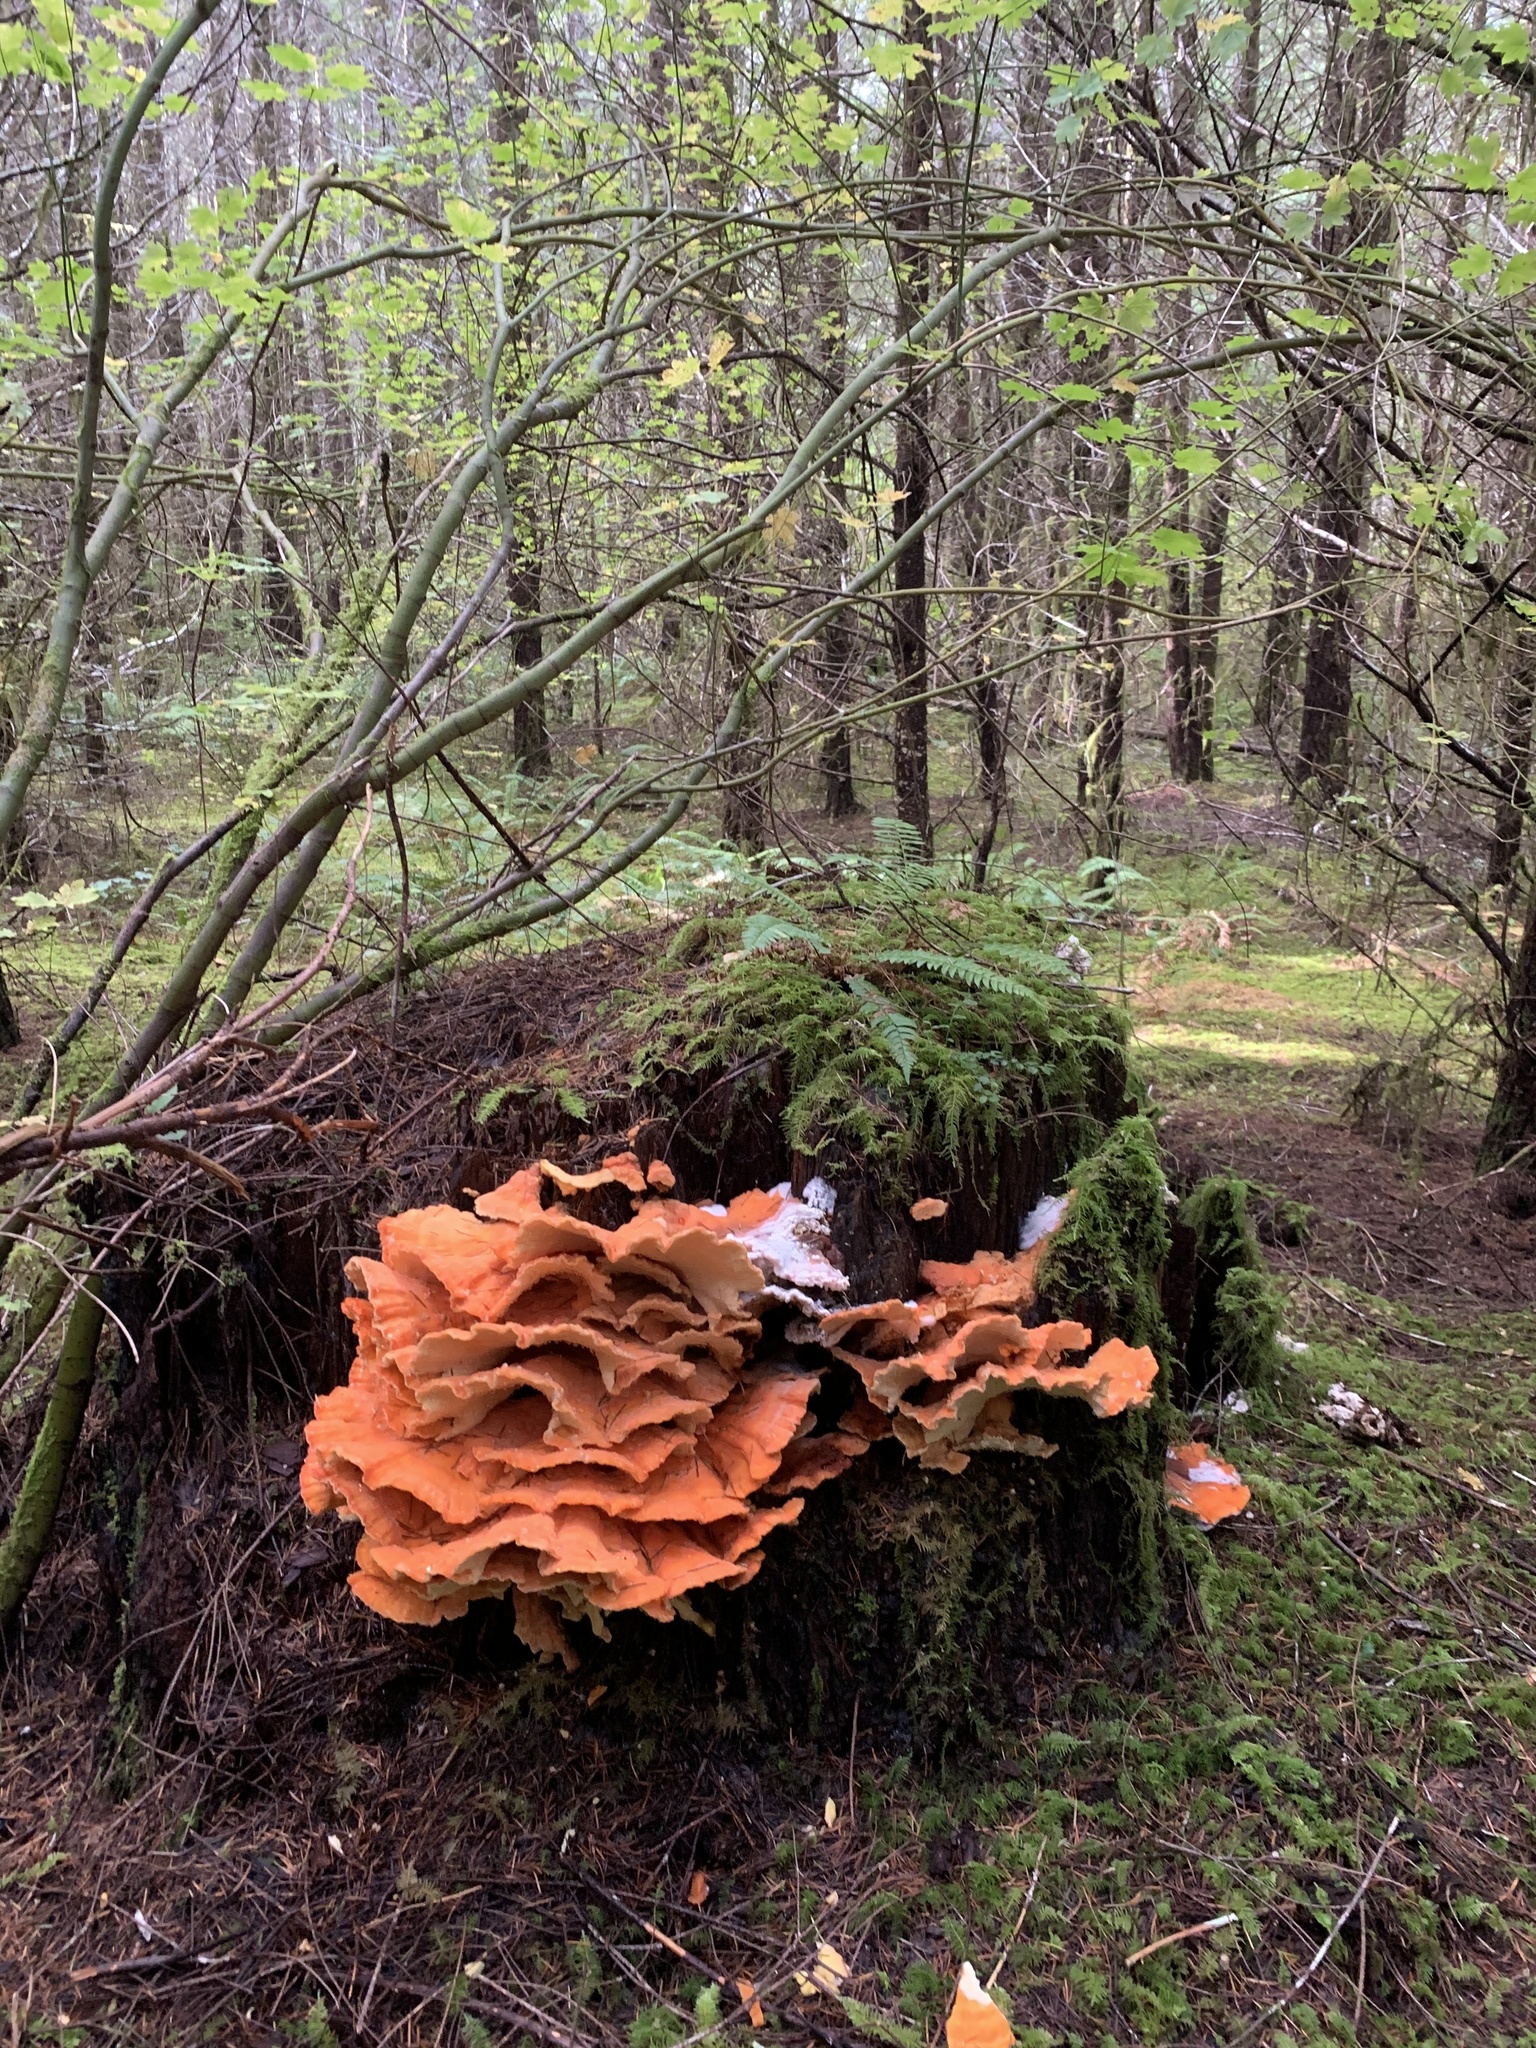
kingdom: Fungi
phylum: Basidiomycota
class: Agaricomycetes
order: Polyporales
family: Laetiporaceae
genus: Laetiporus
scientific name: Laetiporus conifericola
